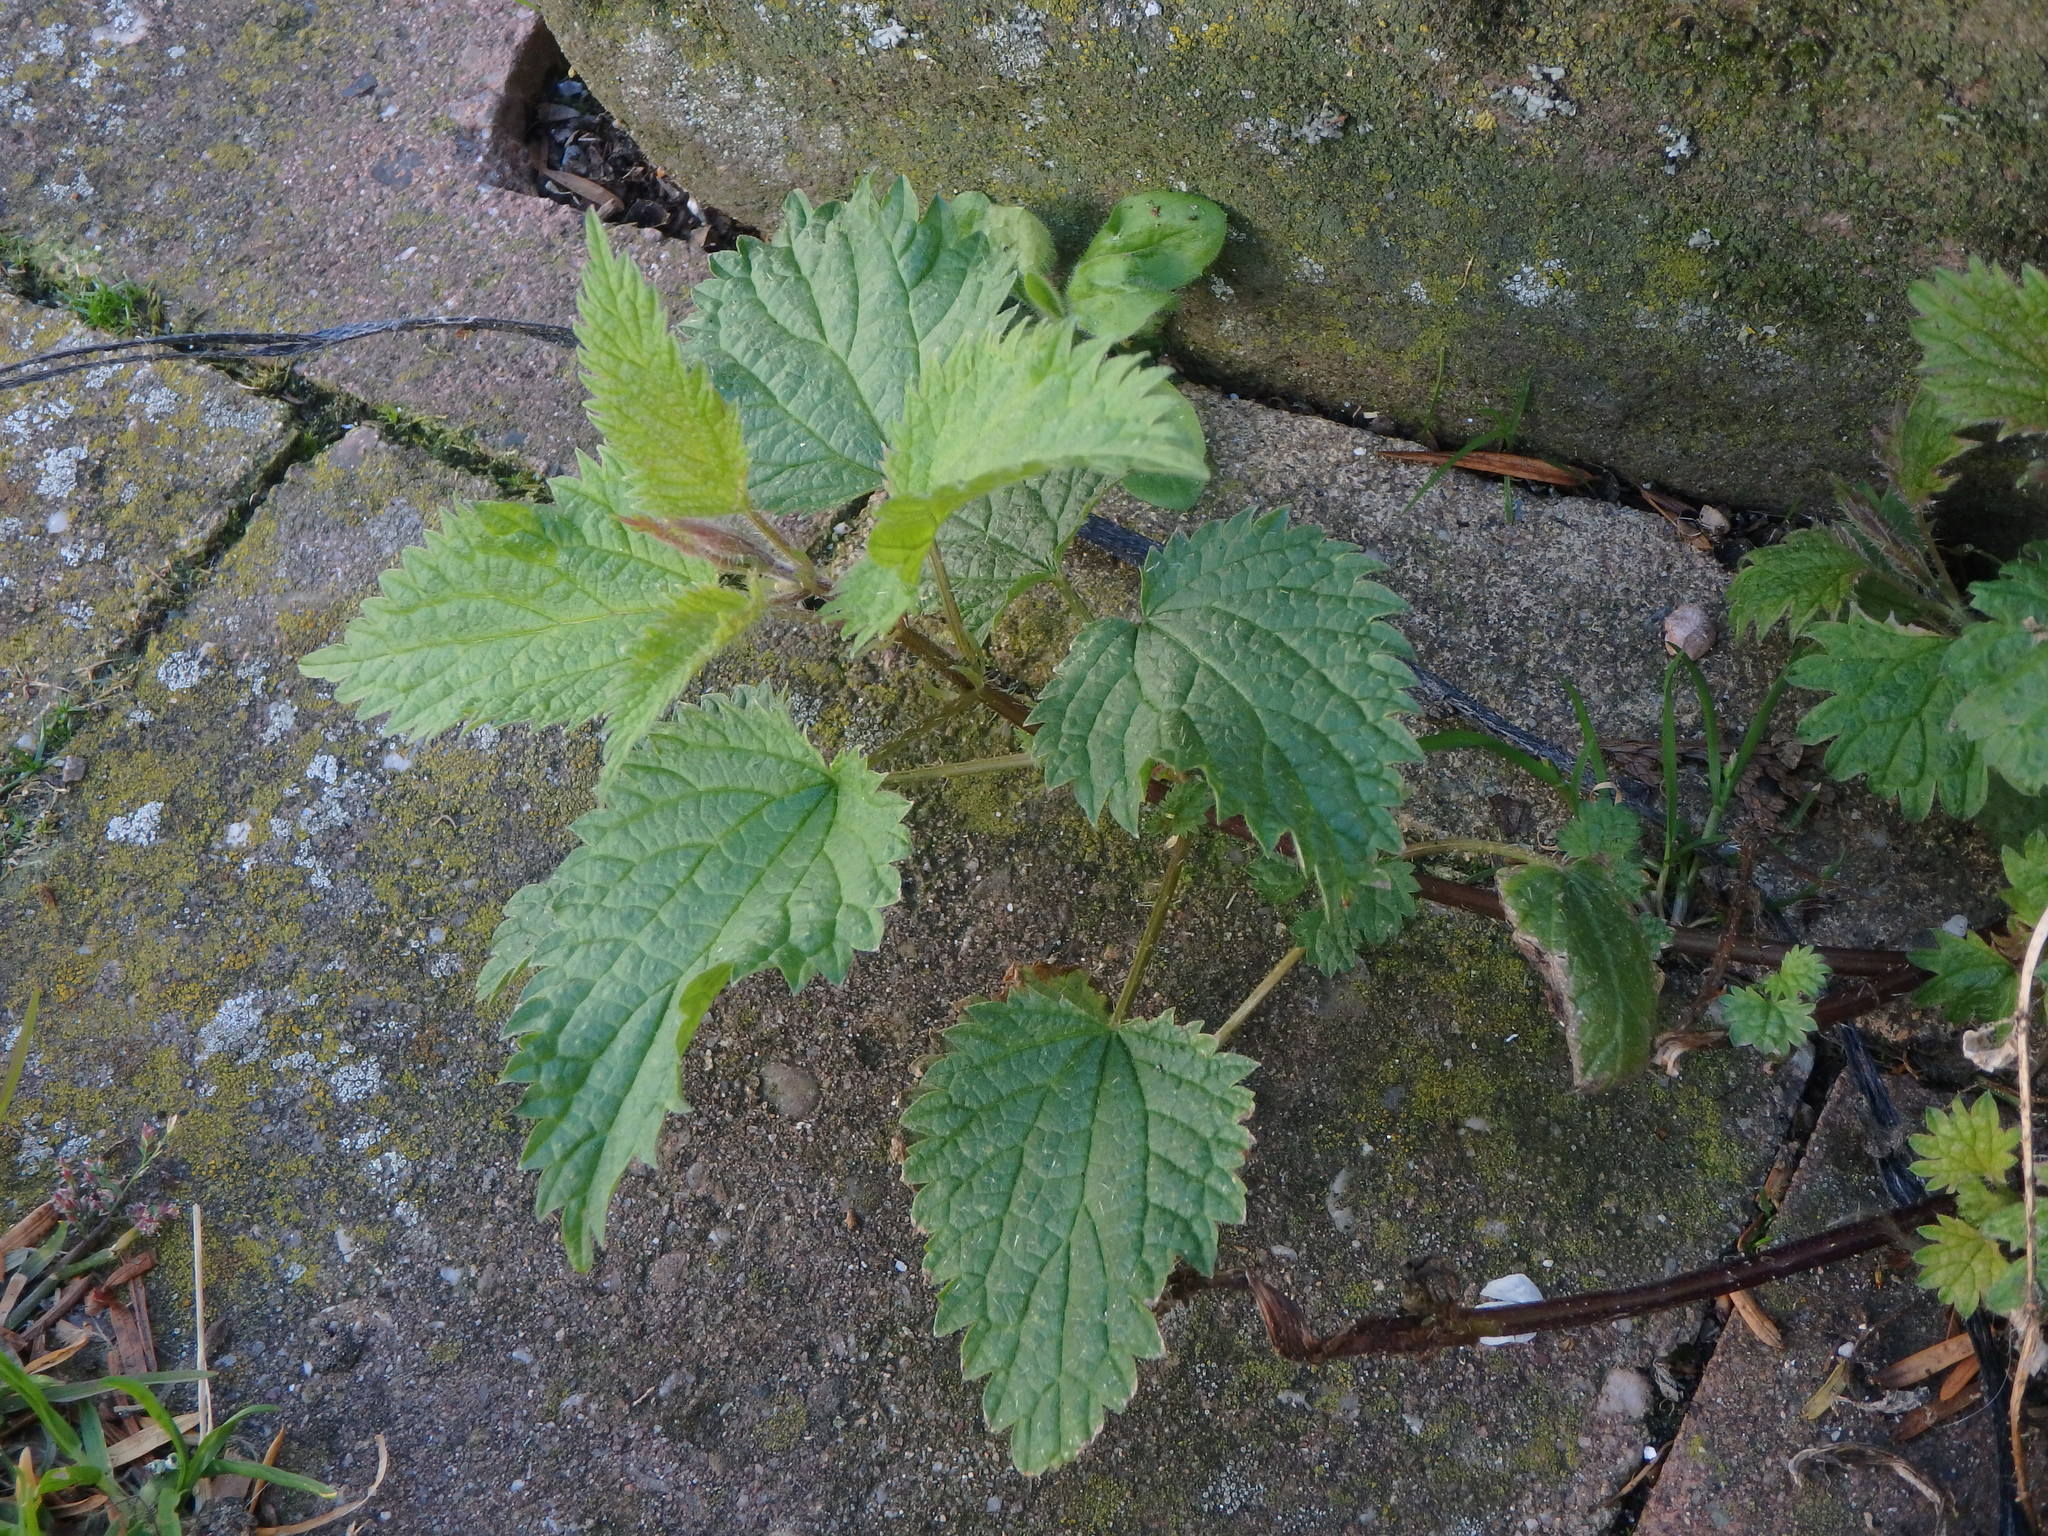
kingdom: Plantae
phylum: Tracheophyta
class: Magnoliopsida
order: Rosales
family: Urticaceae
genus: Urtica
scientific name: Urtica dioica
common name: Common nettle
